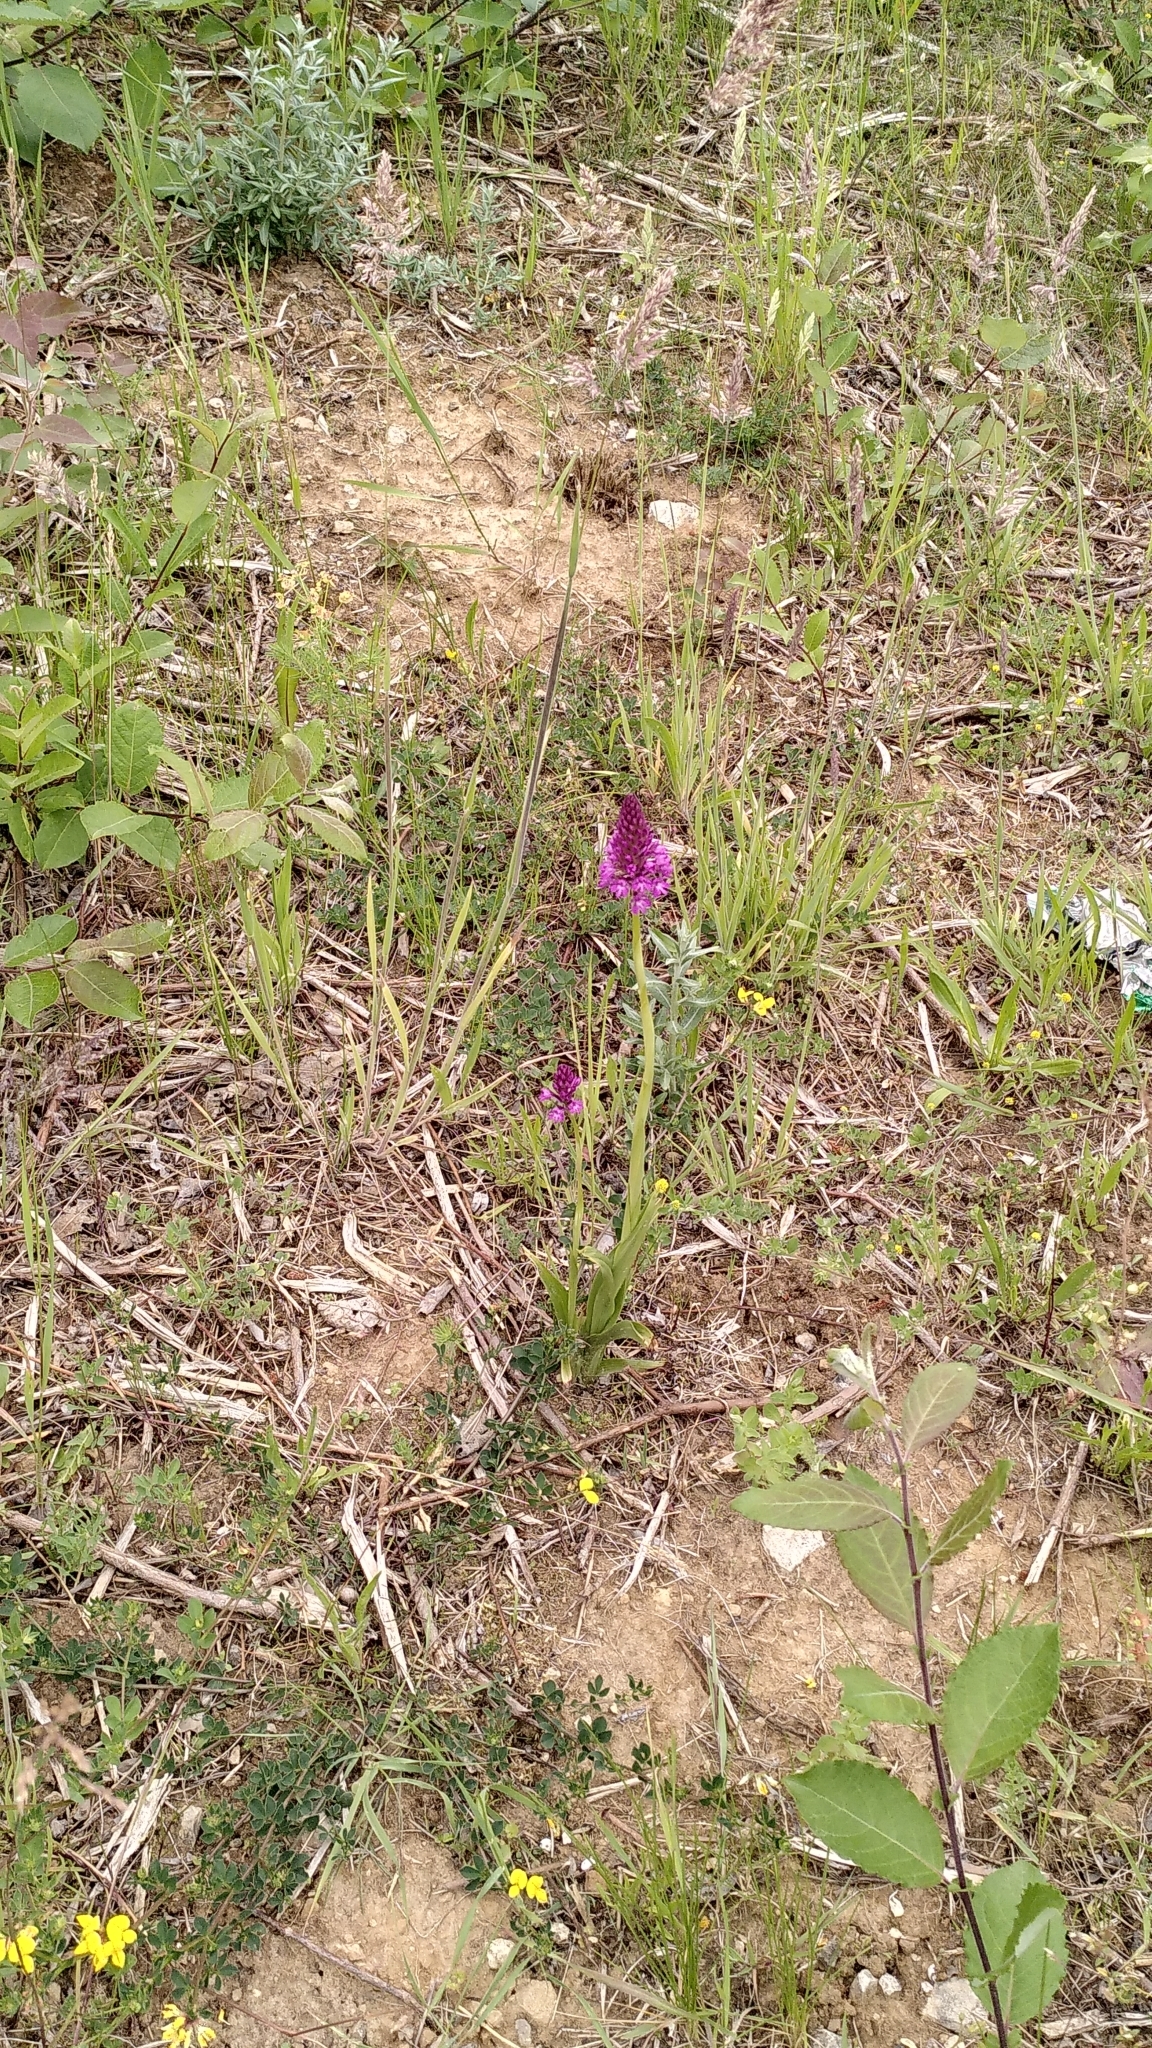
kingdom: Plantae
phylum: Tracheophyta
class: Liliopsida
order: Asparagales
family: Orchidaceae
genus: Anacamptis
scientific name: Anacamptis pyramidalis
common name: Pyramidal orchid
